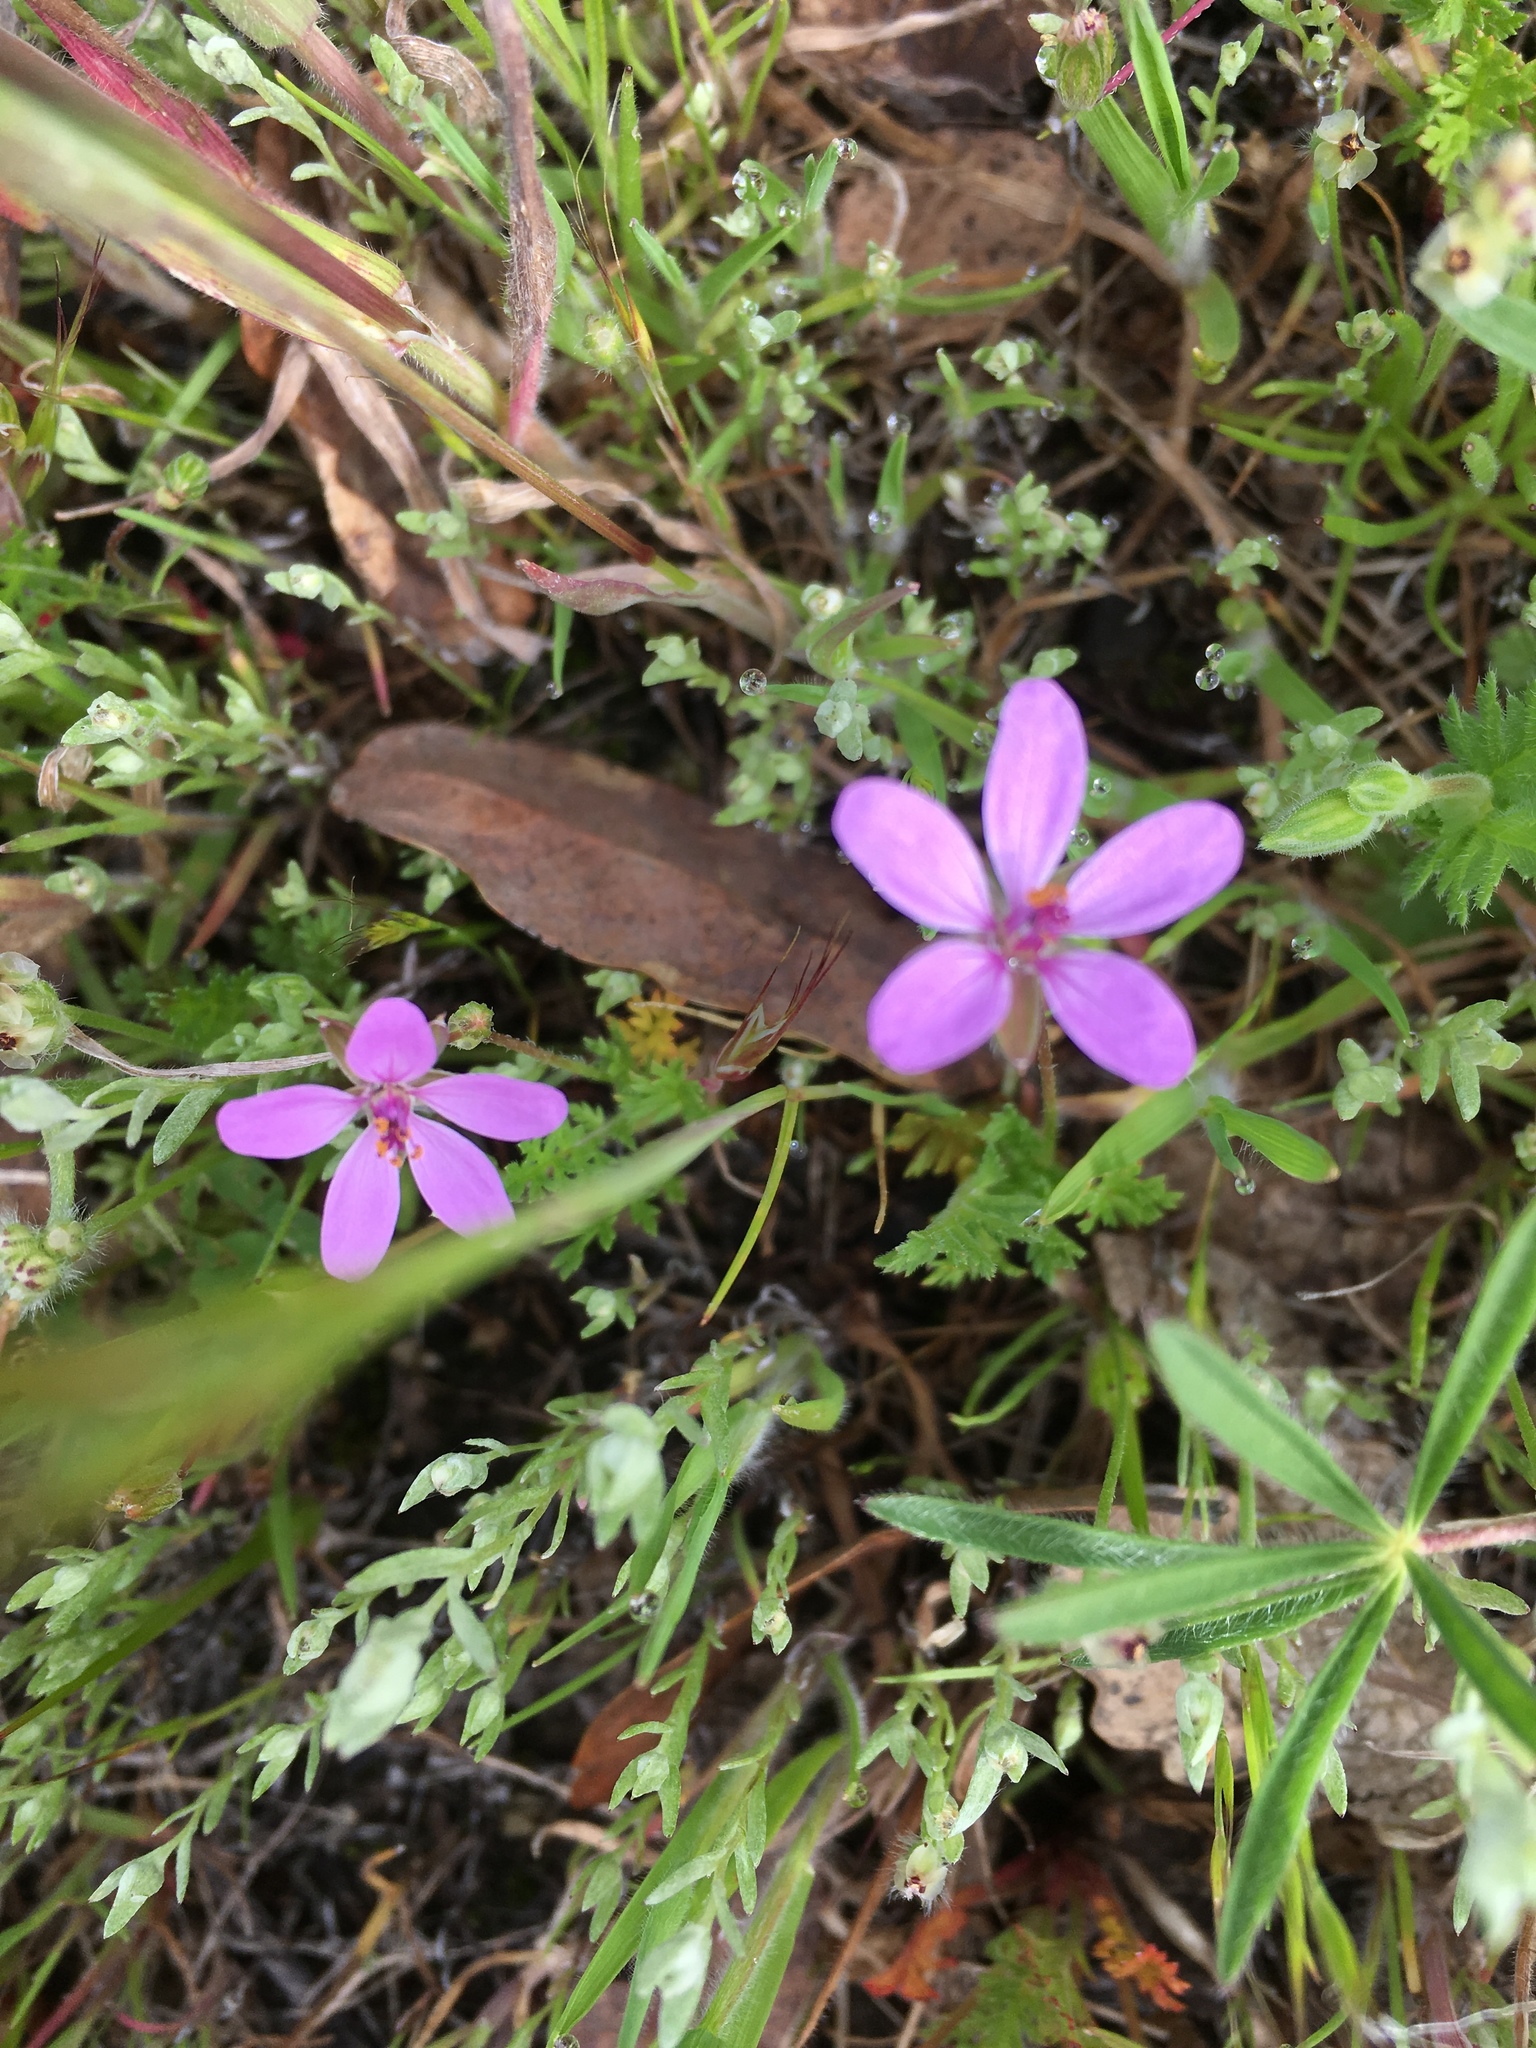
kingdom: Plantae
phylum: Tracheophyta
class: Magnoliopsida
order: Geraniales
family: Geraniaceae
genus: Erodium
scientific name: Erodium cicutarium
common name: Common stork's-bill
